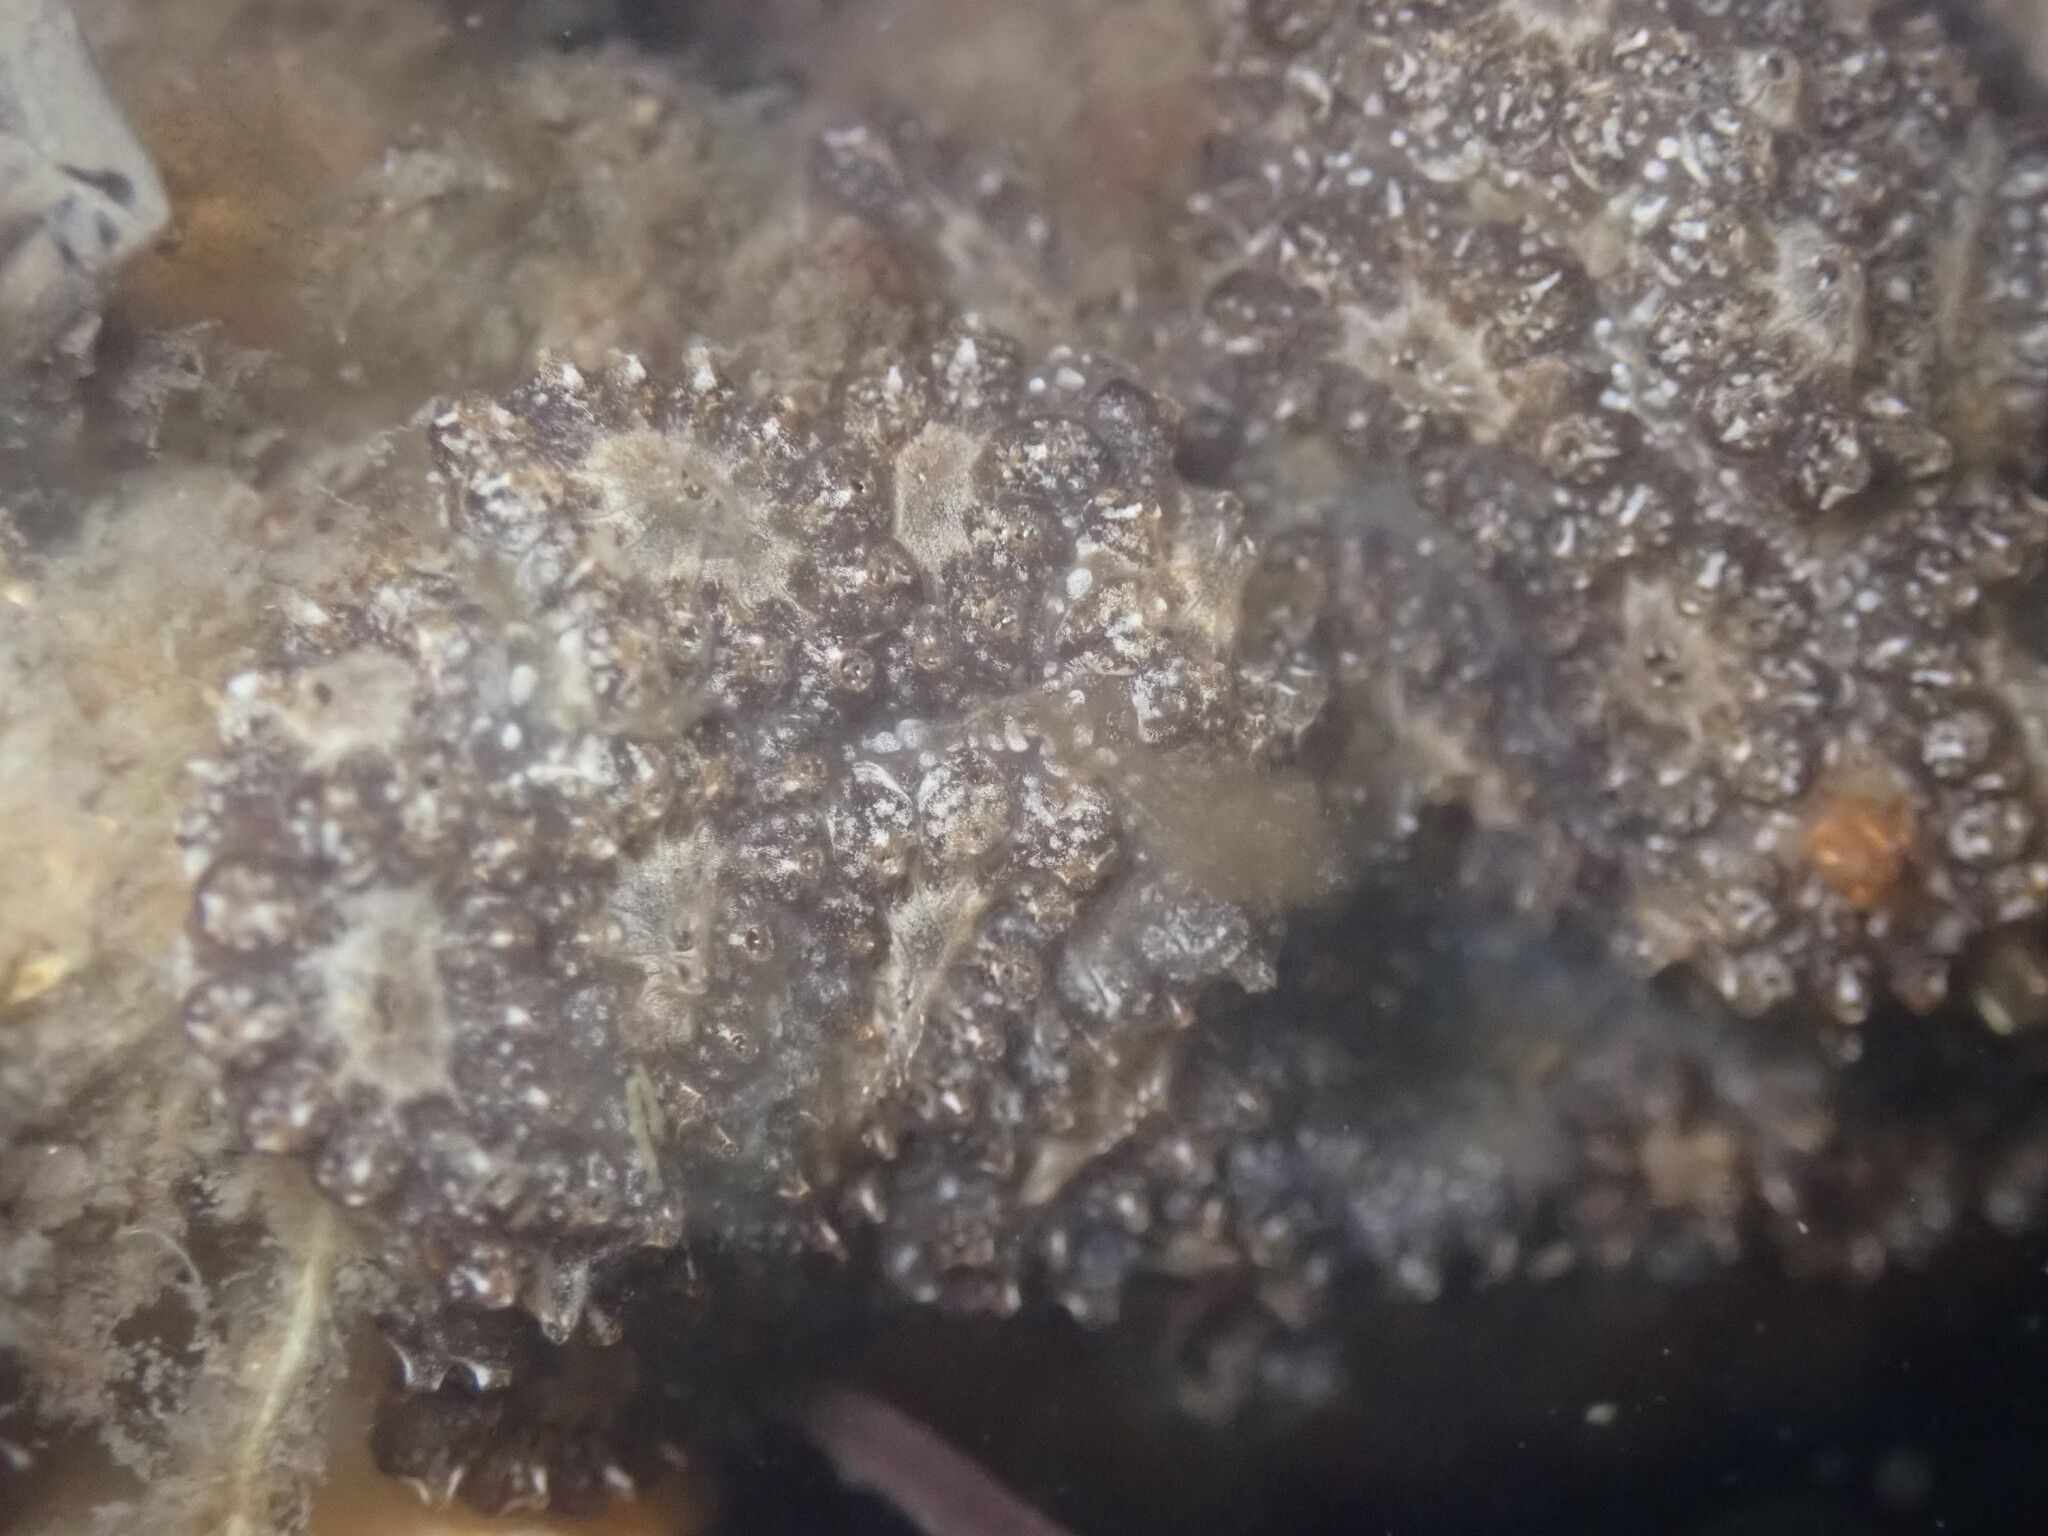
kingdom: Animalia
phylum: Chordata
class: Ascidiacea
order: Stolidobranchia
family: Styelidae
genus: Botryllus
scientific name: Botryllus schlosseri
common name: Golden star tunicate
